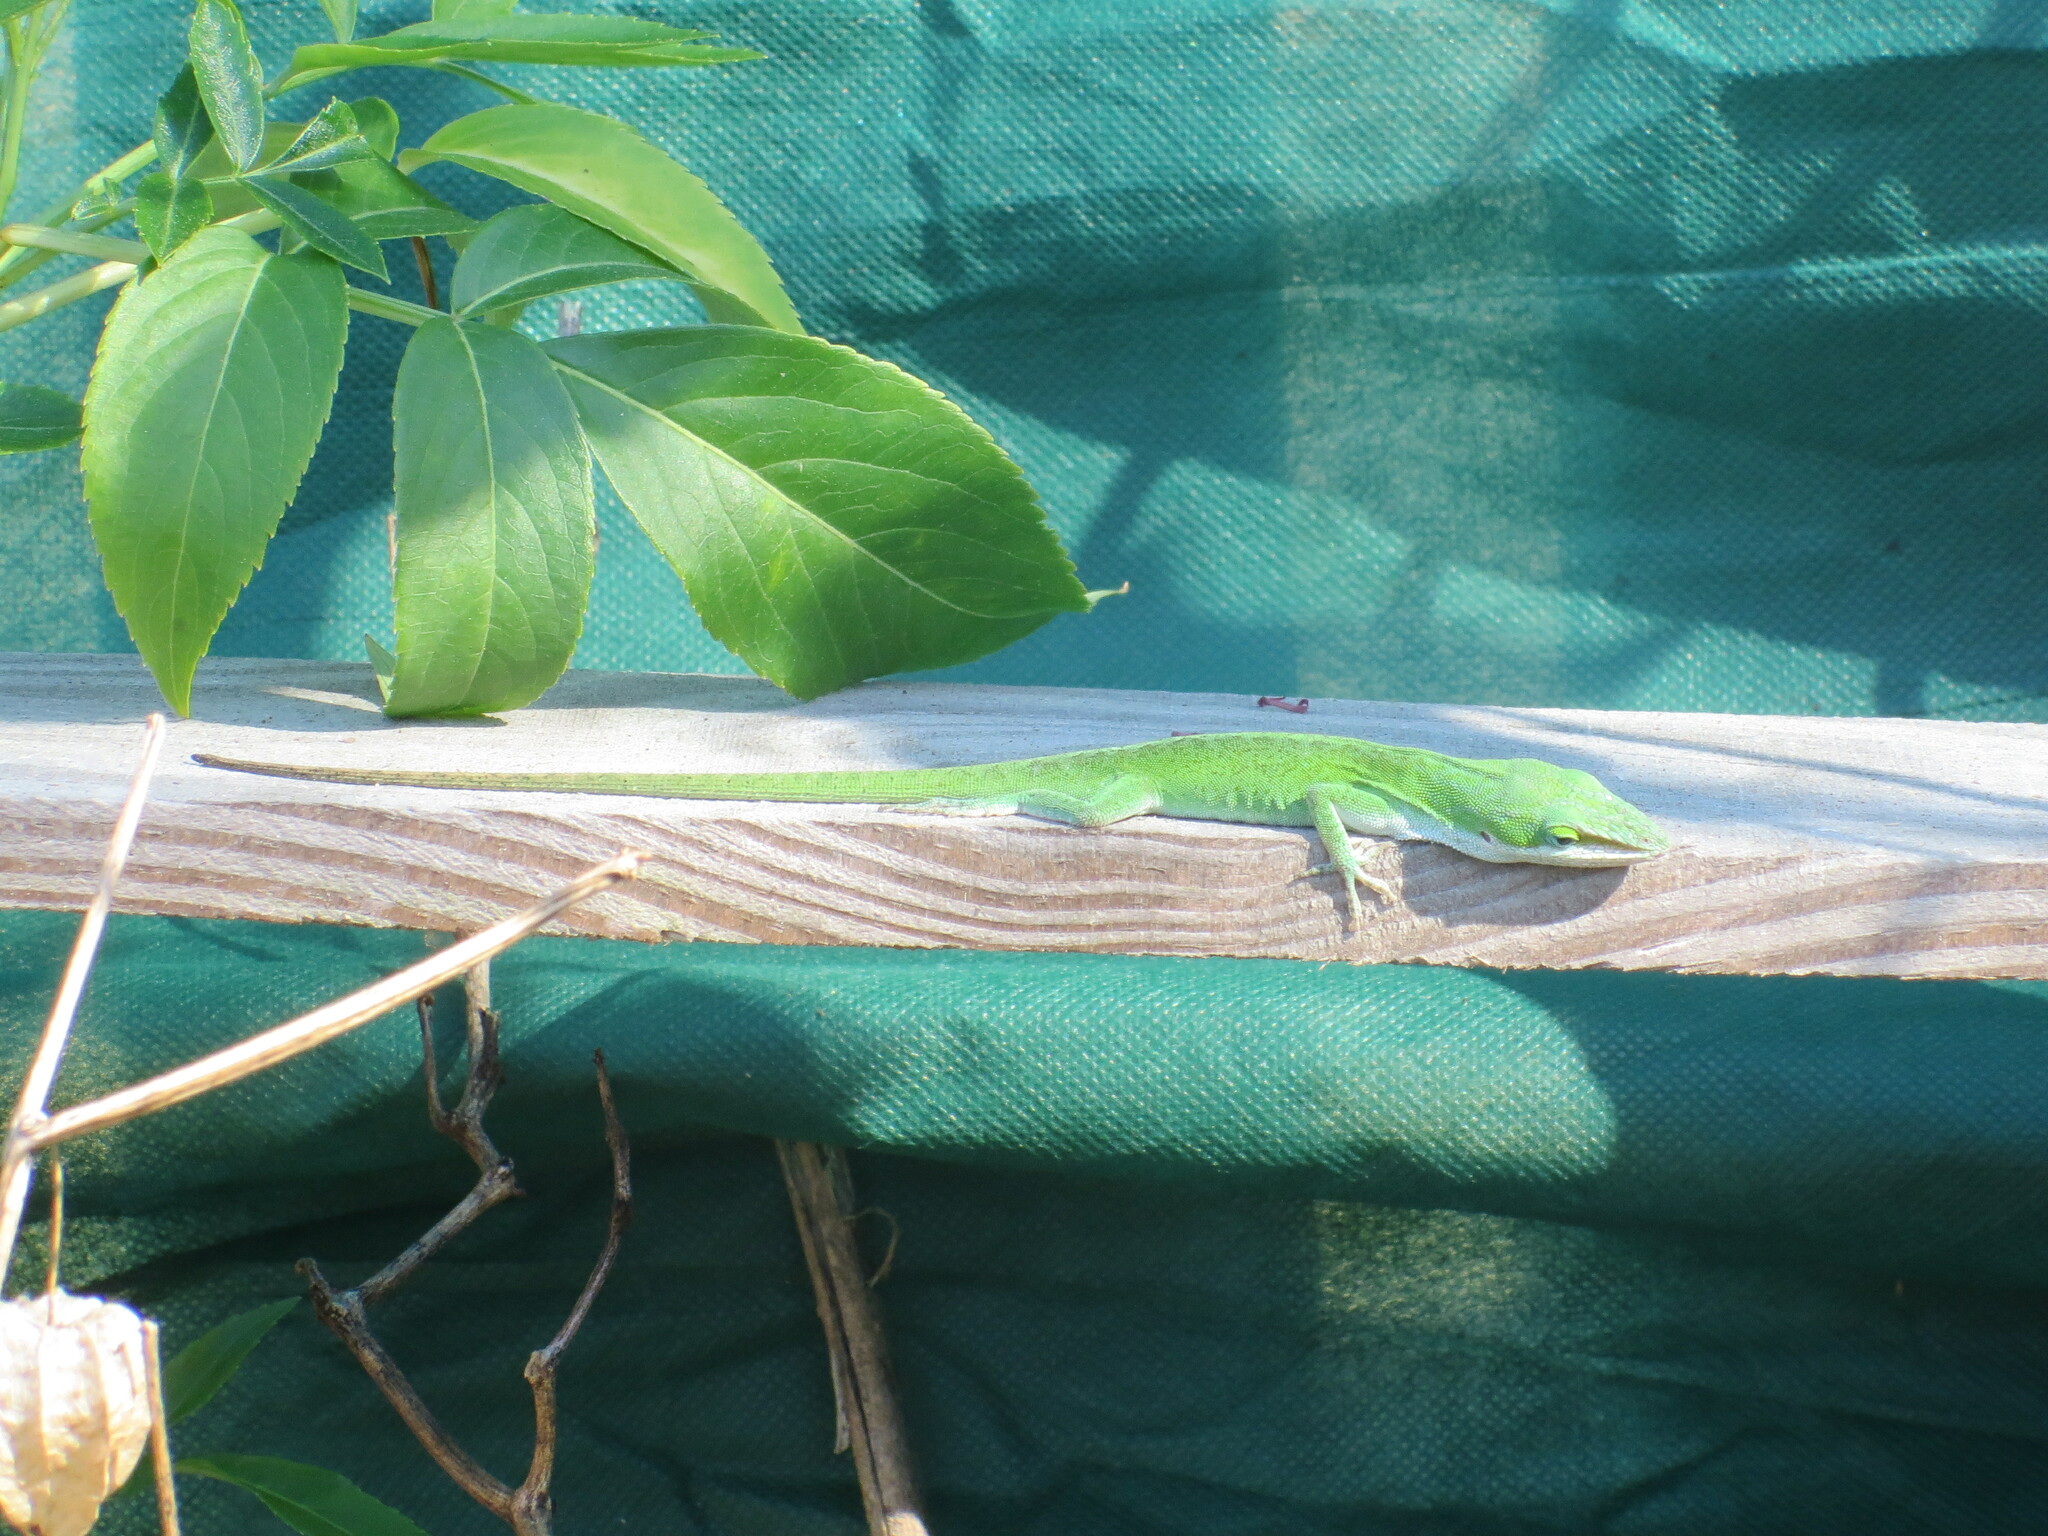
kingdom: Animalia
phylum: Chordata
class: Squamata
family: Dactyloidae
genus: Anolis
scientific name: Anolis carolinensis
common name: Green anole
